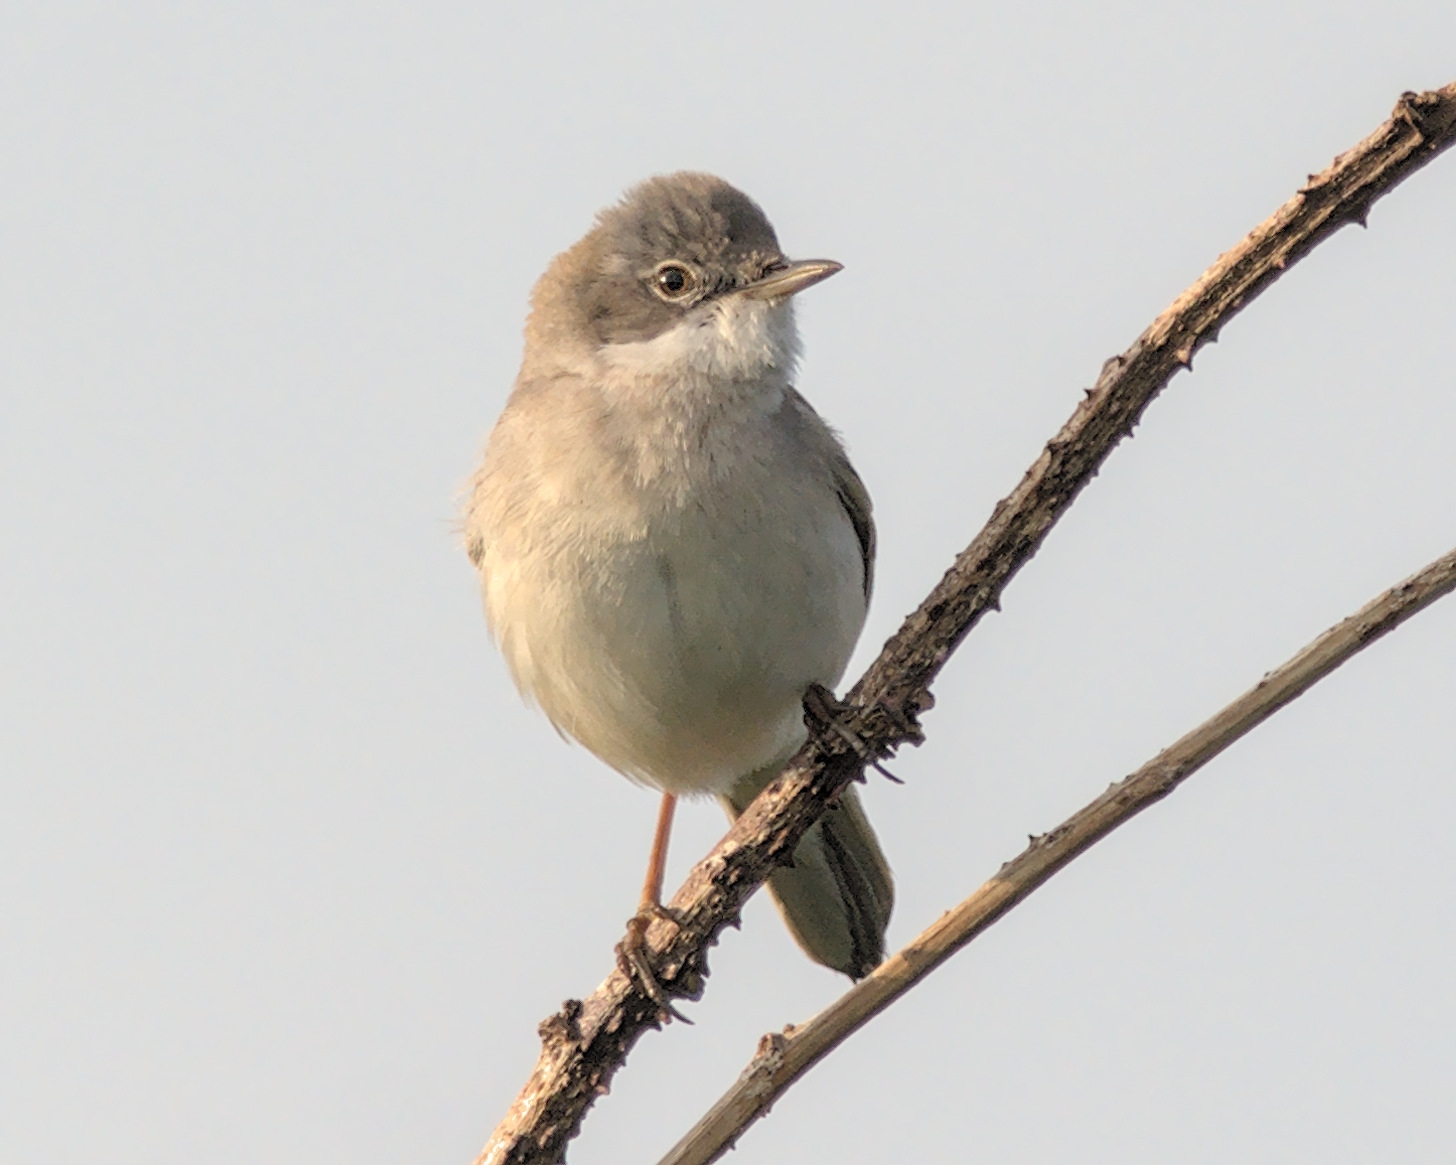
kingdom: Animalia
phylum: Chordata
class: Aves
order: Passeriformes
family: Sylviidae
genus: Sylvia
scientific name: Sylvia communis
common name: Common whitethroat
